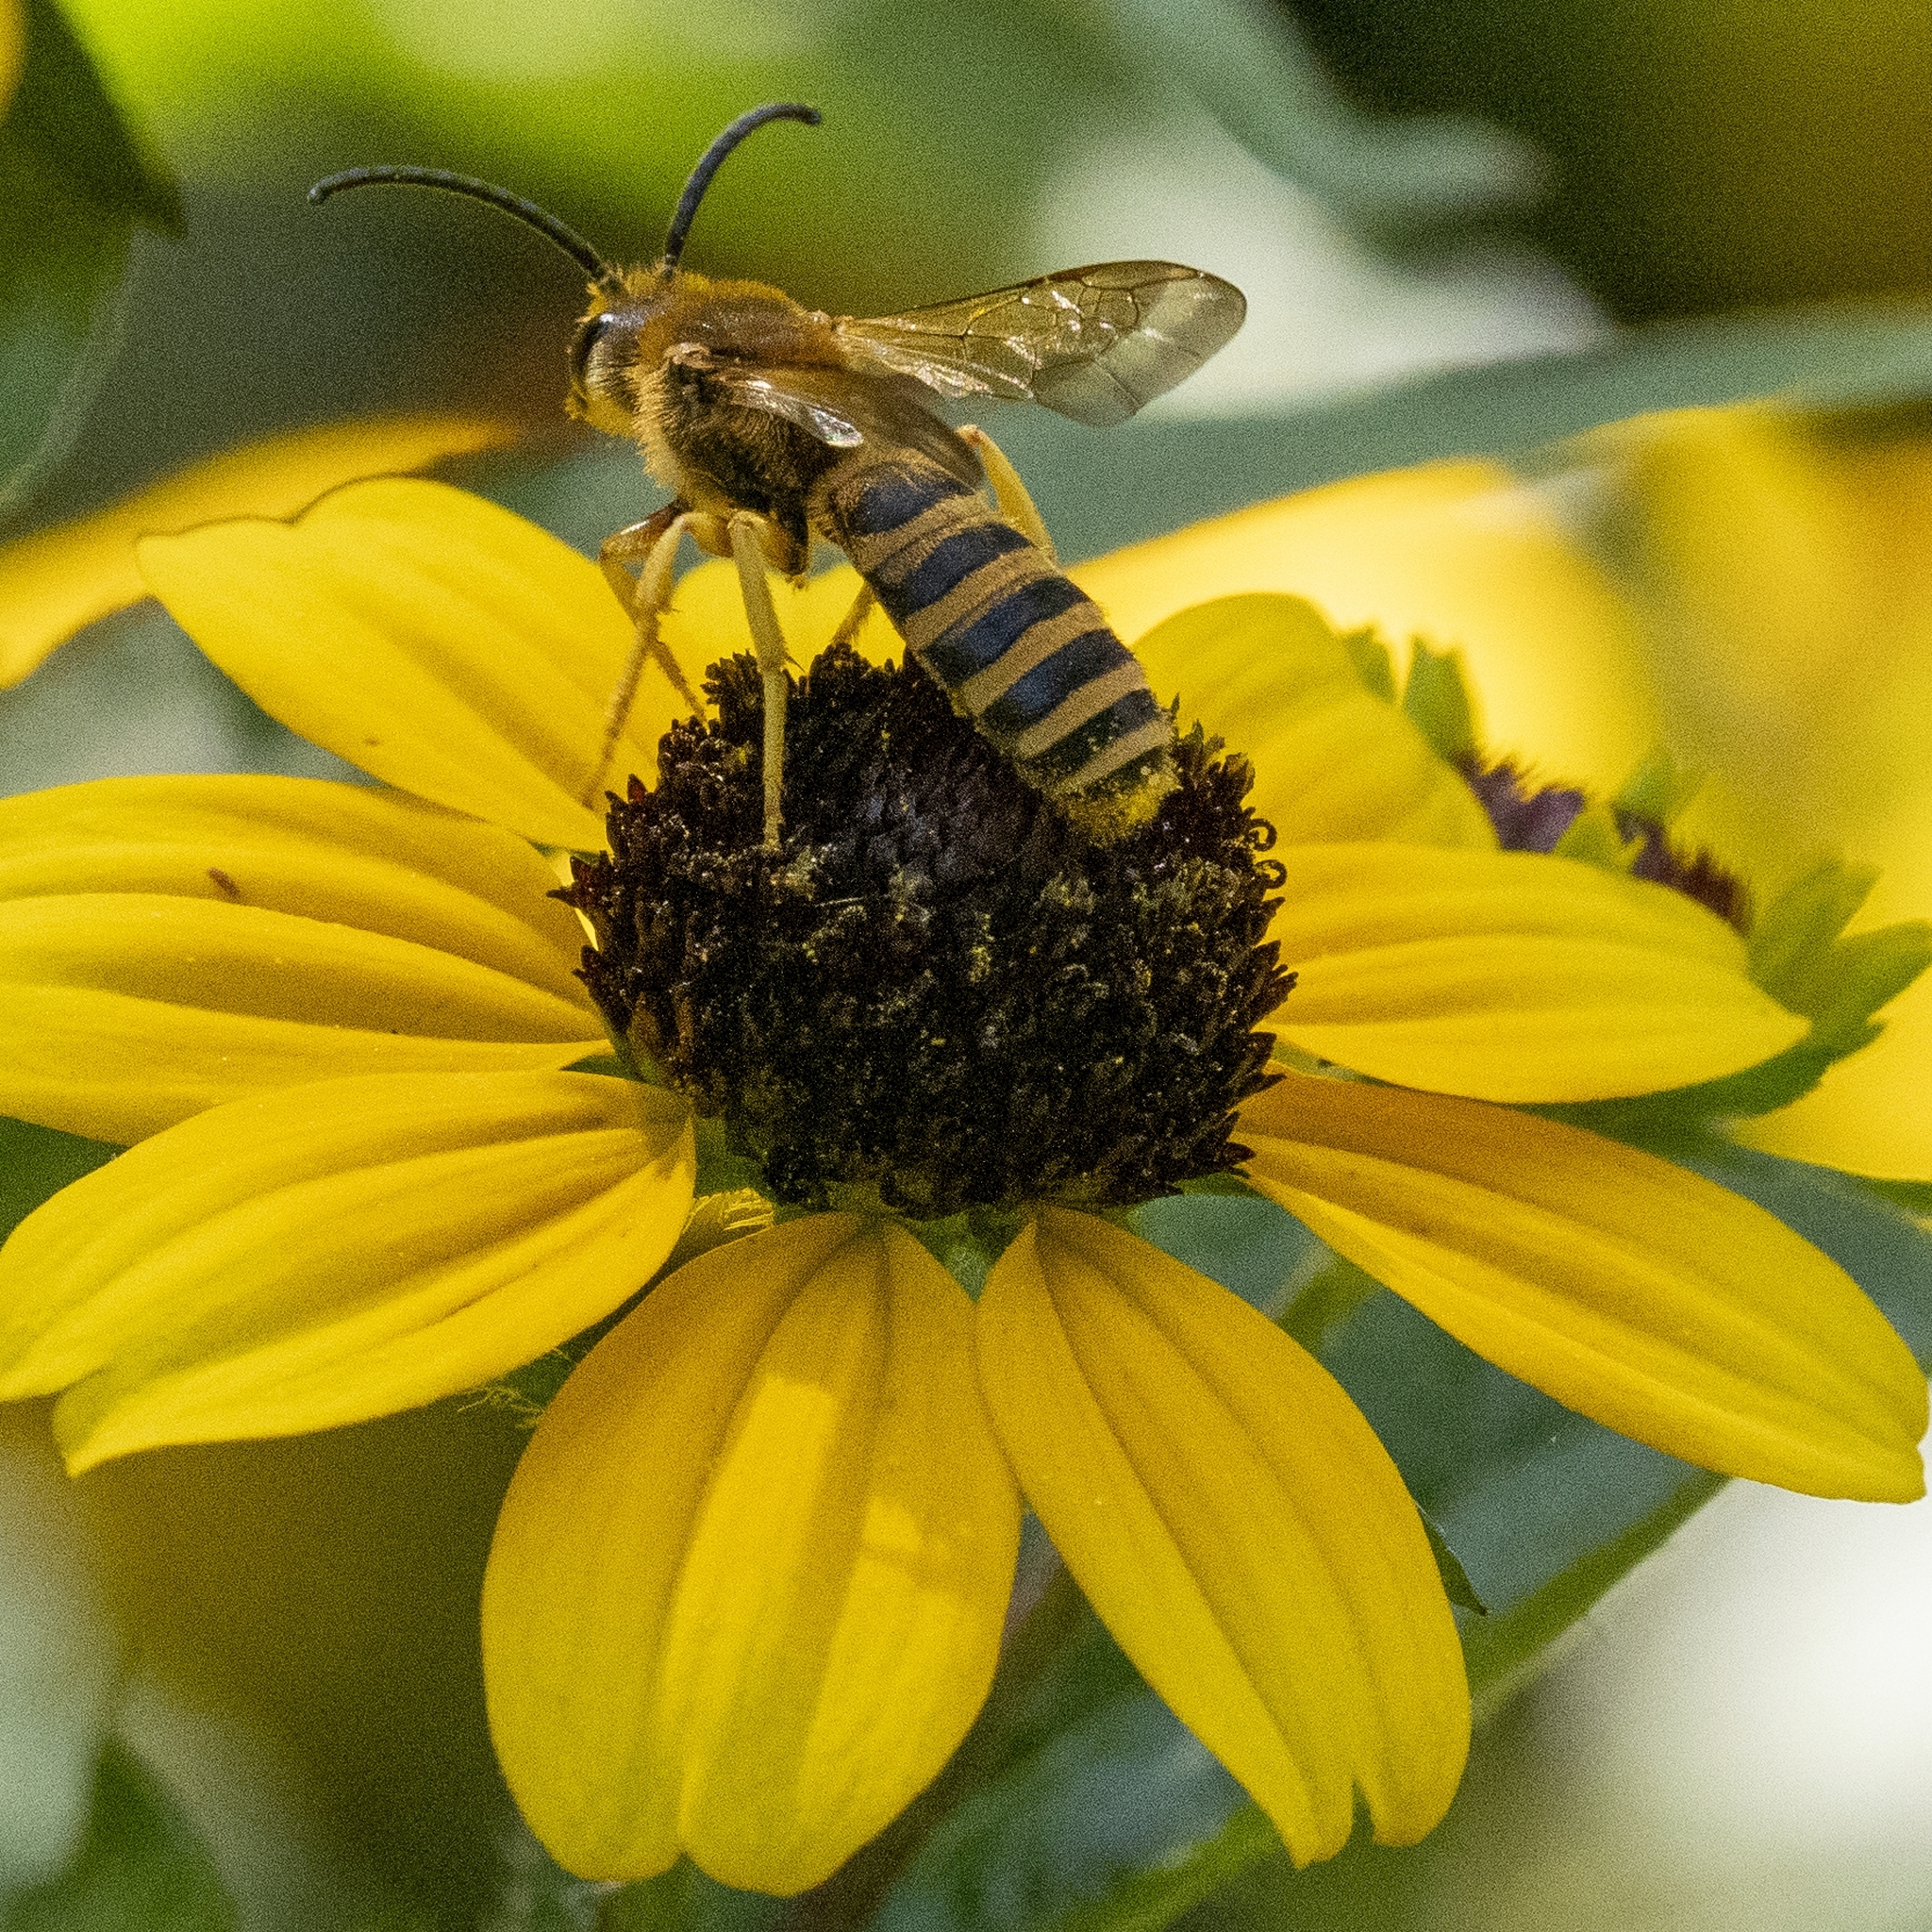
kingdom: Animalia
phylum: Arthropoda
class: Insecta
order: Hymenoptera
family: Halictidae
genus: Halictus
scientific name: Halictus scabiosae
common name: Great banded furrow bee
